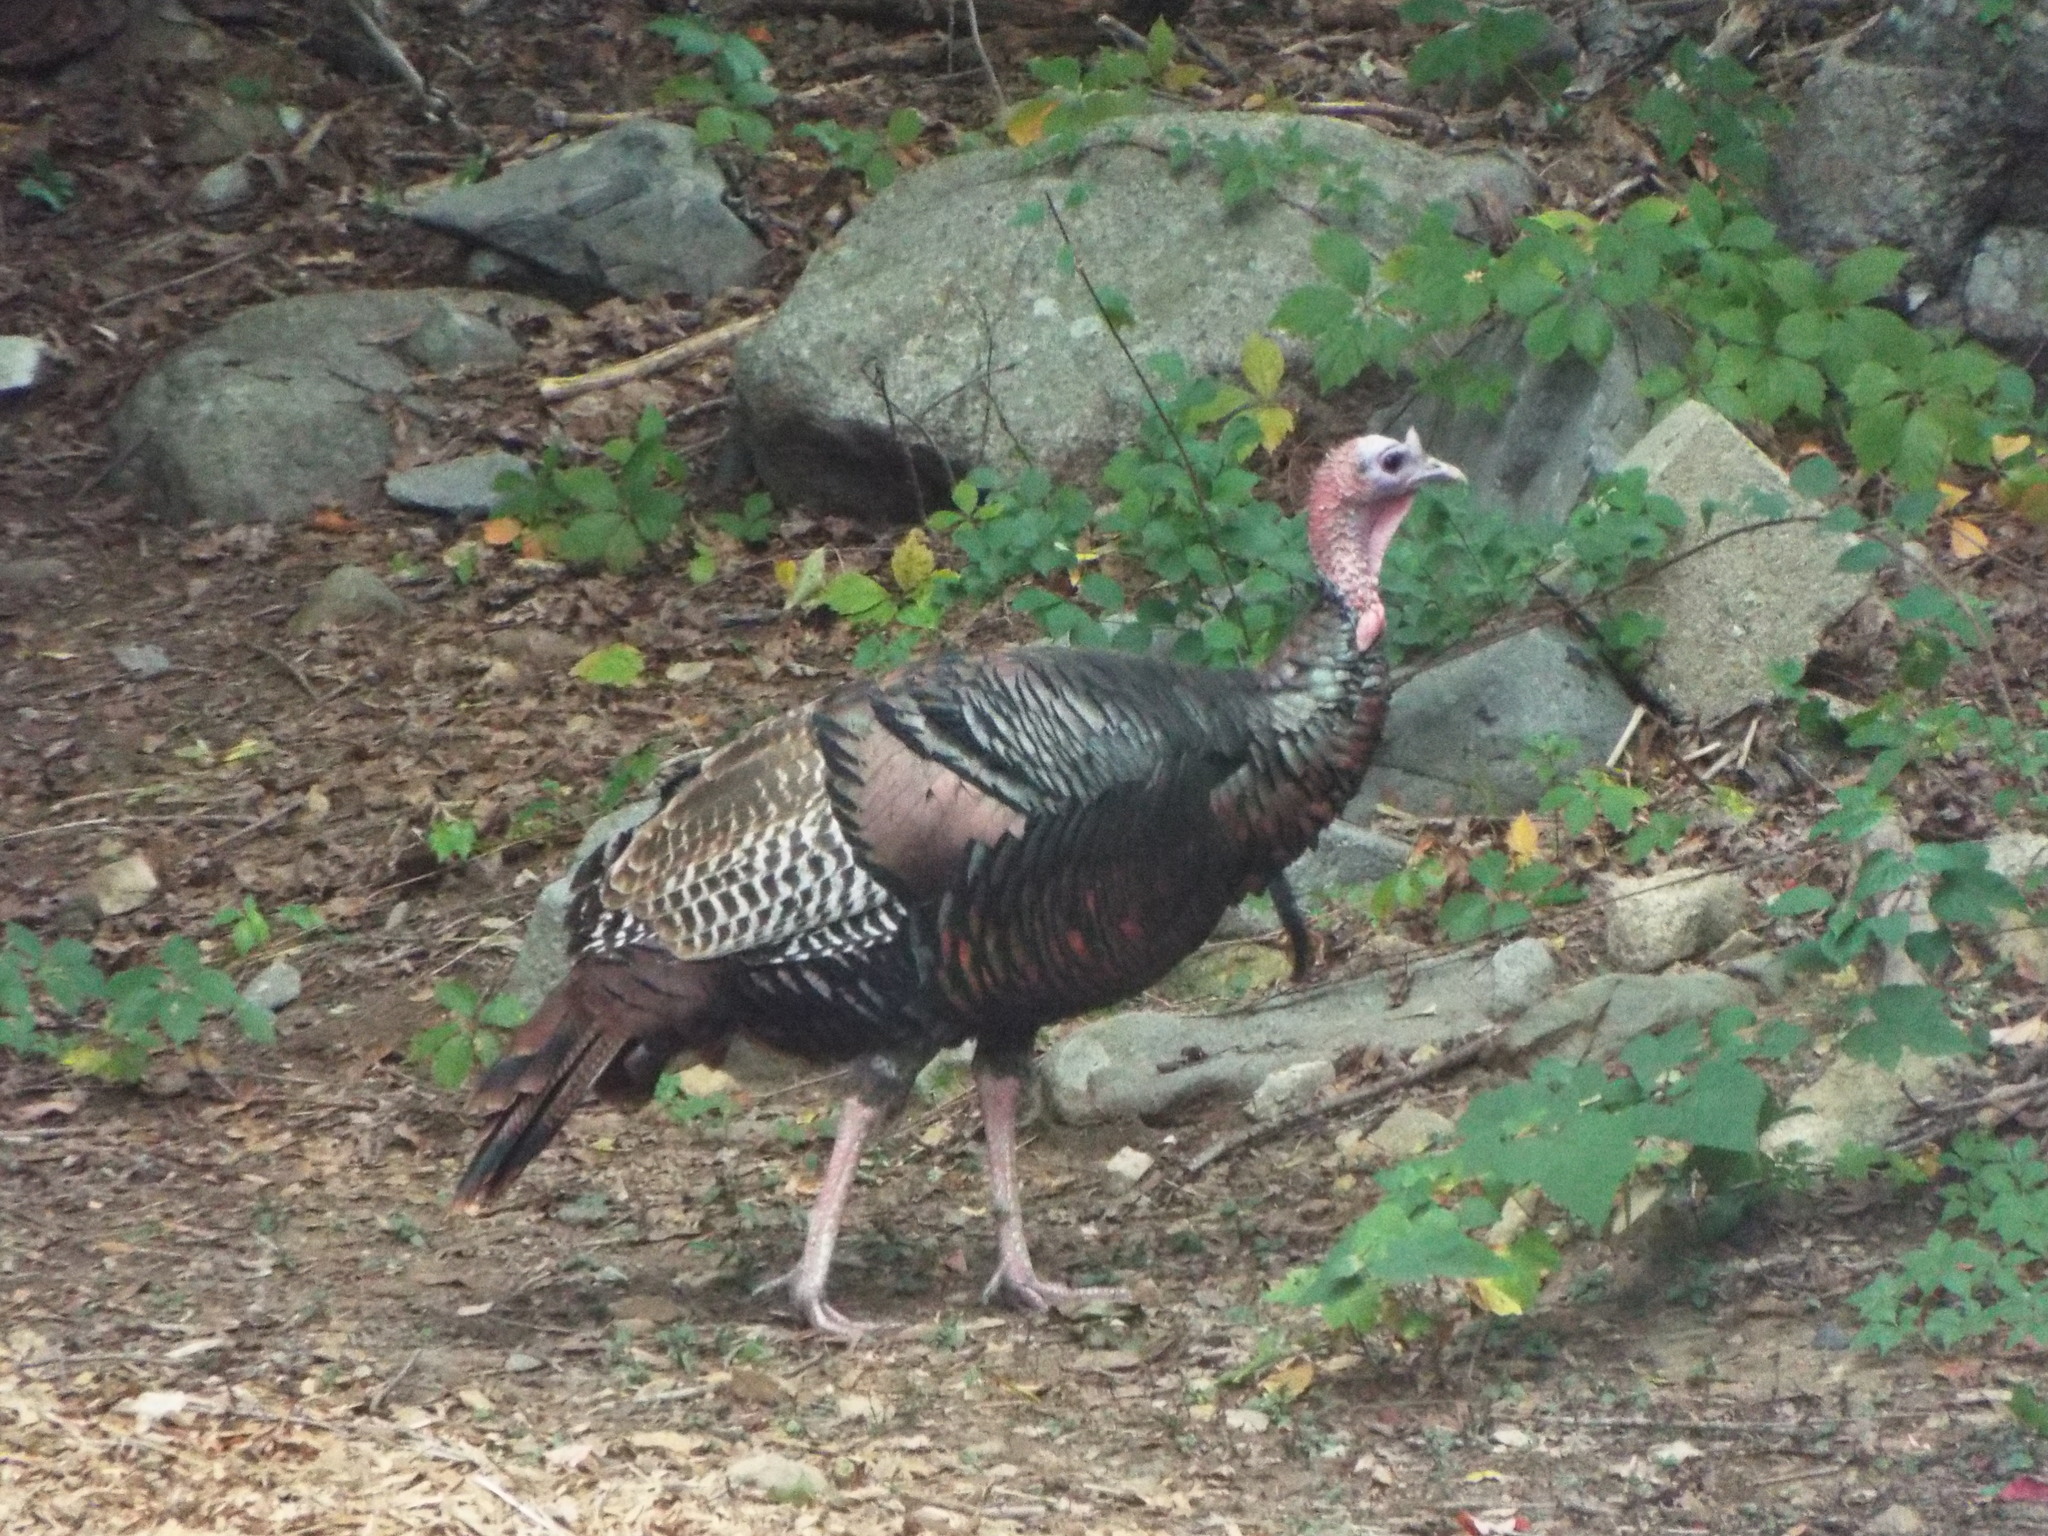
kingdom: Animalia
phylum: Chordata
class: Aves
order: Galliformes
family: Phasianidae
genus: Meleagris
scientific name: Meleagris gallopavo
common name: Wild turkey
